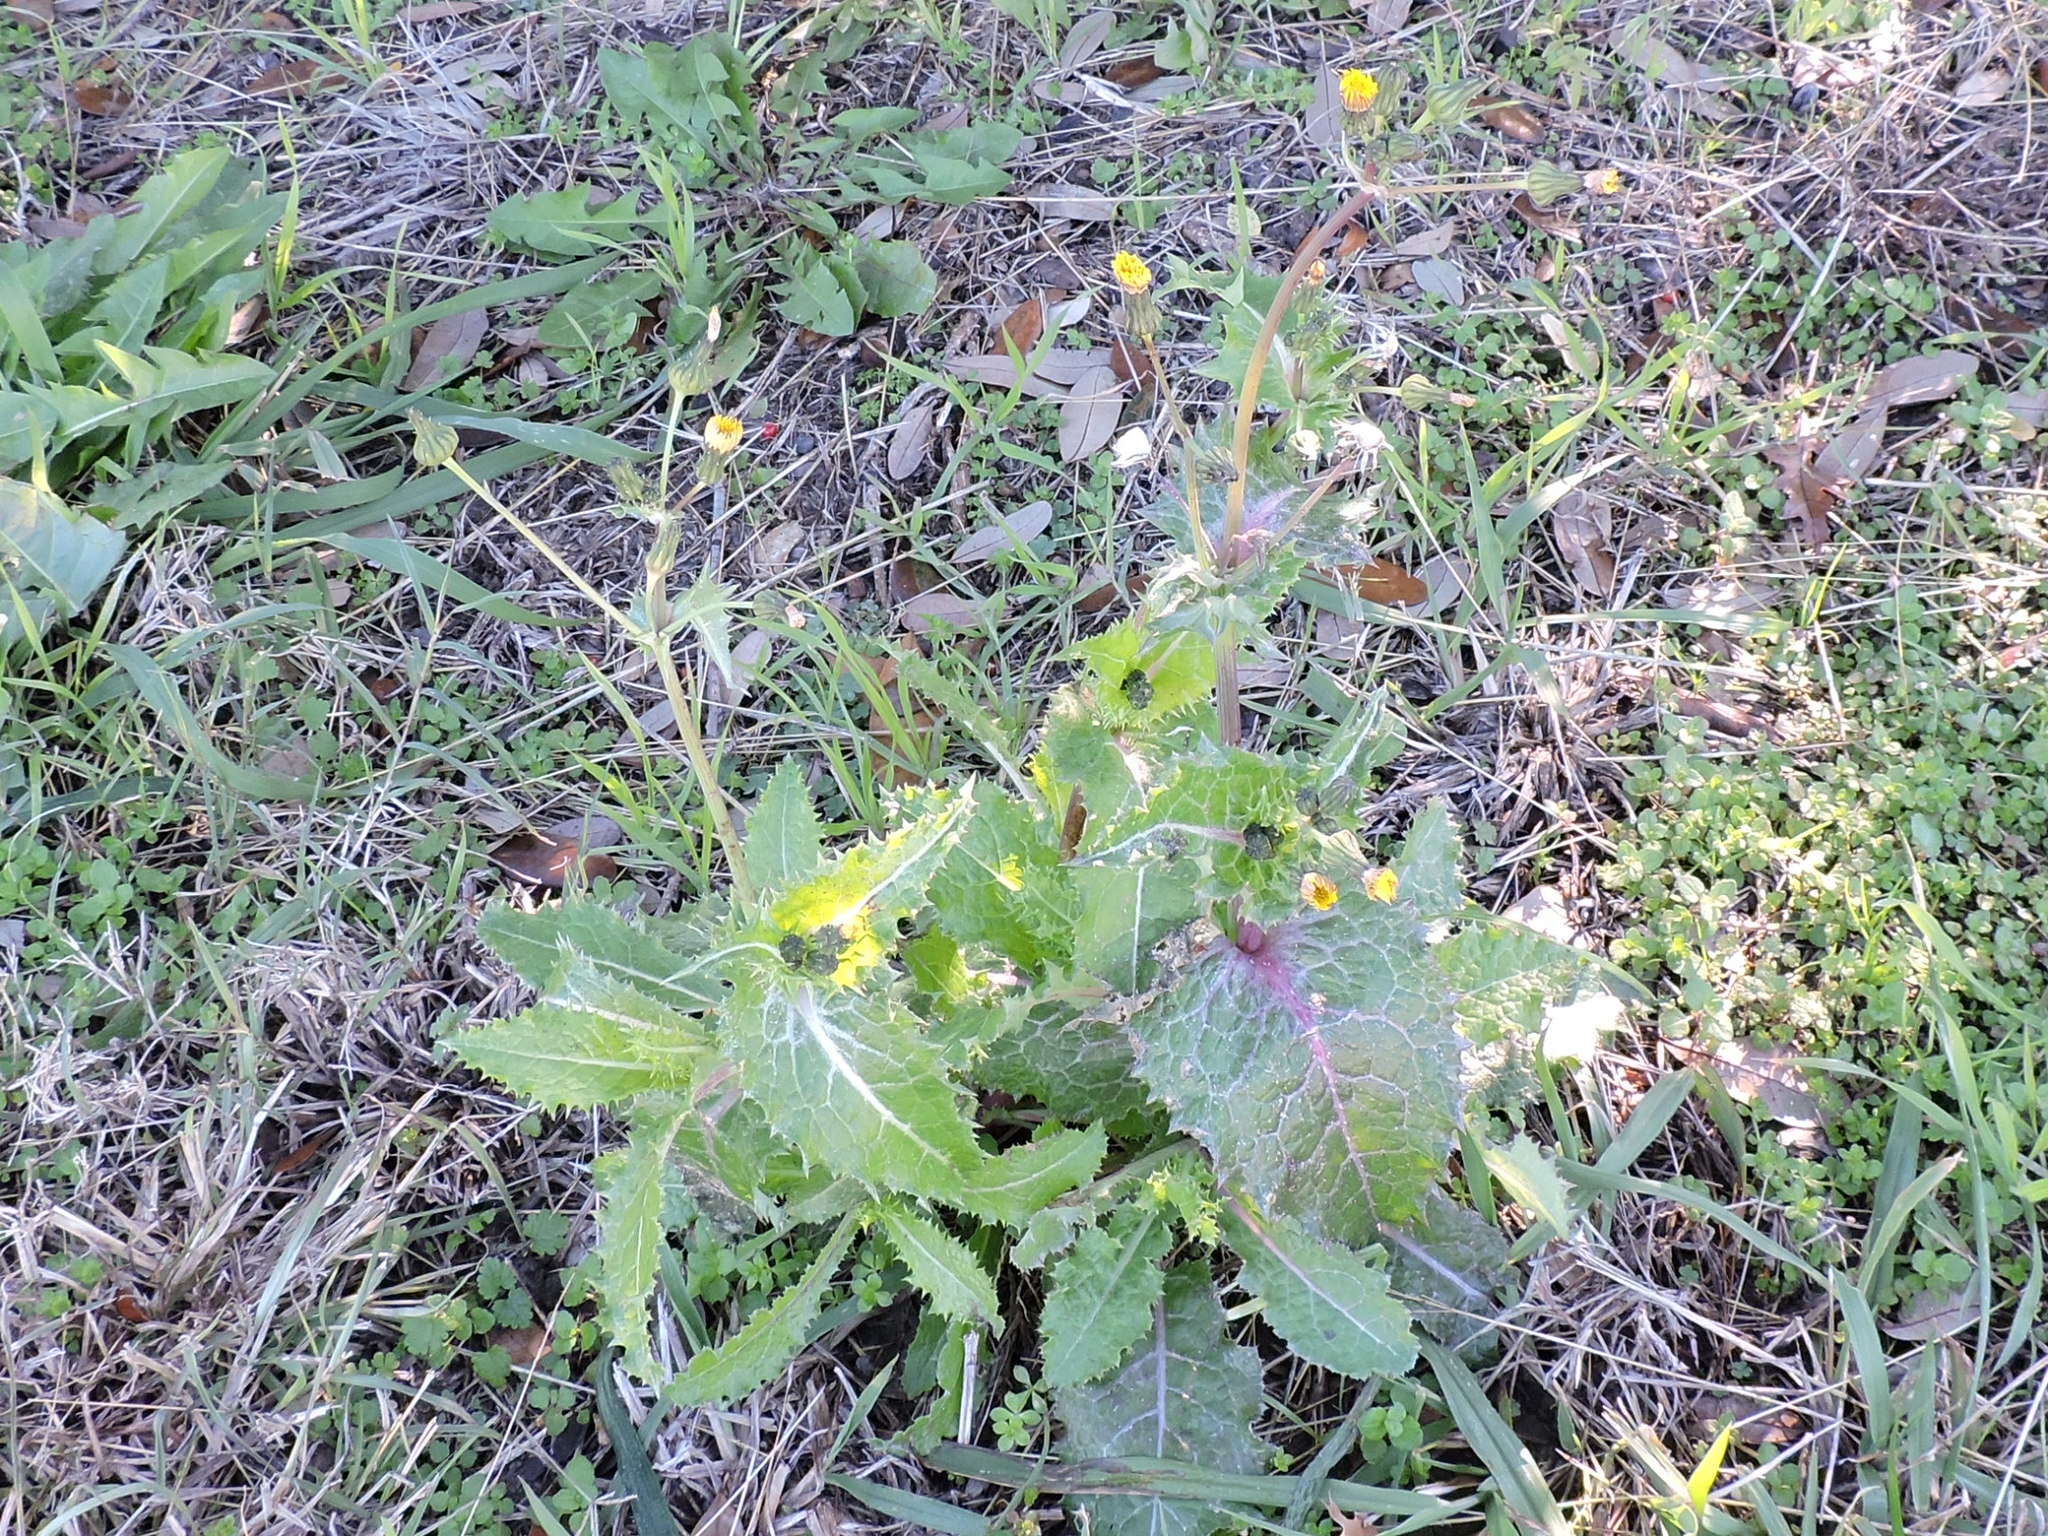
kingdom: Plantae
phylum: Tracheophyta
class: Magnoliopsida
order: Asterales
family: Asteraceae
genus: Sonchus
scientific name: Sonchus asper
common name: Prickly sow-thistle
